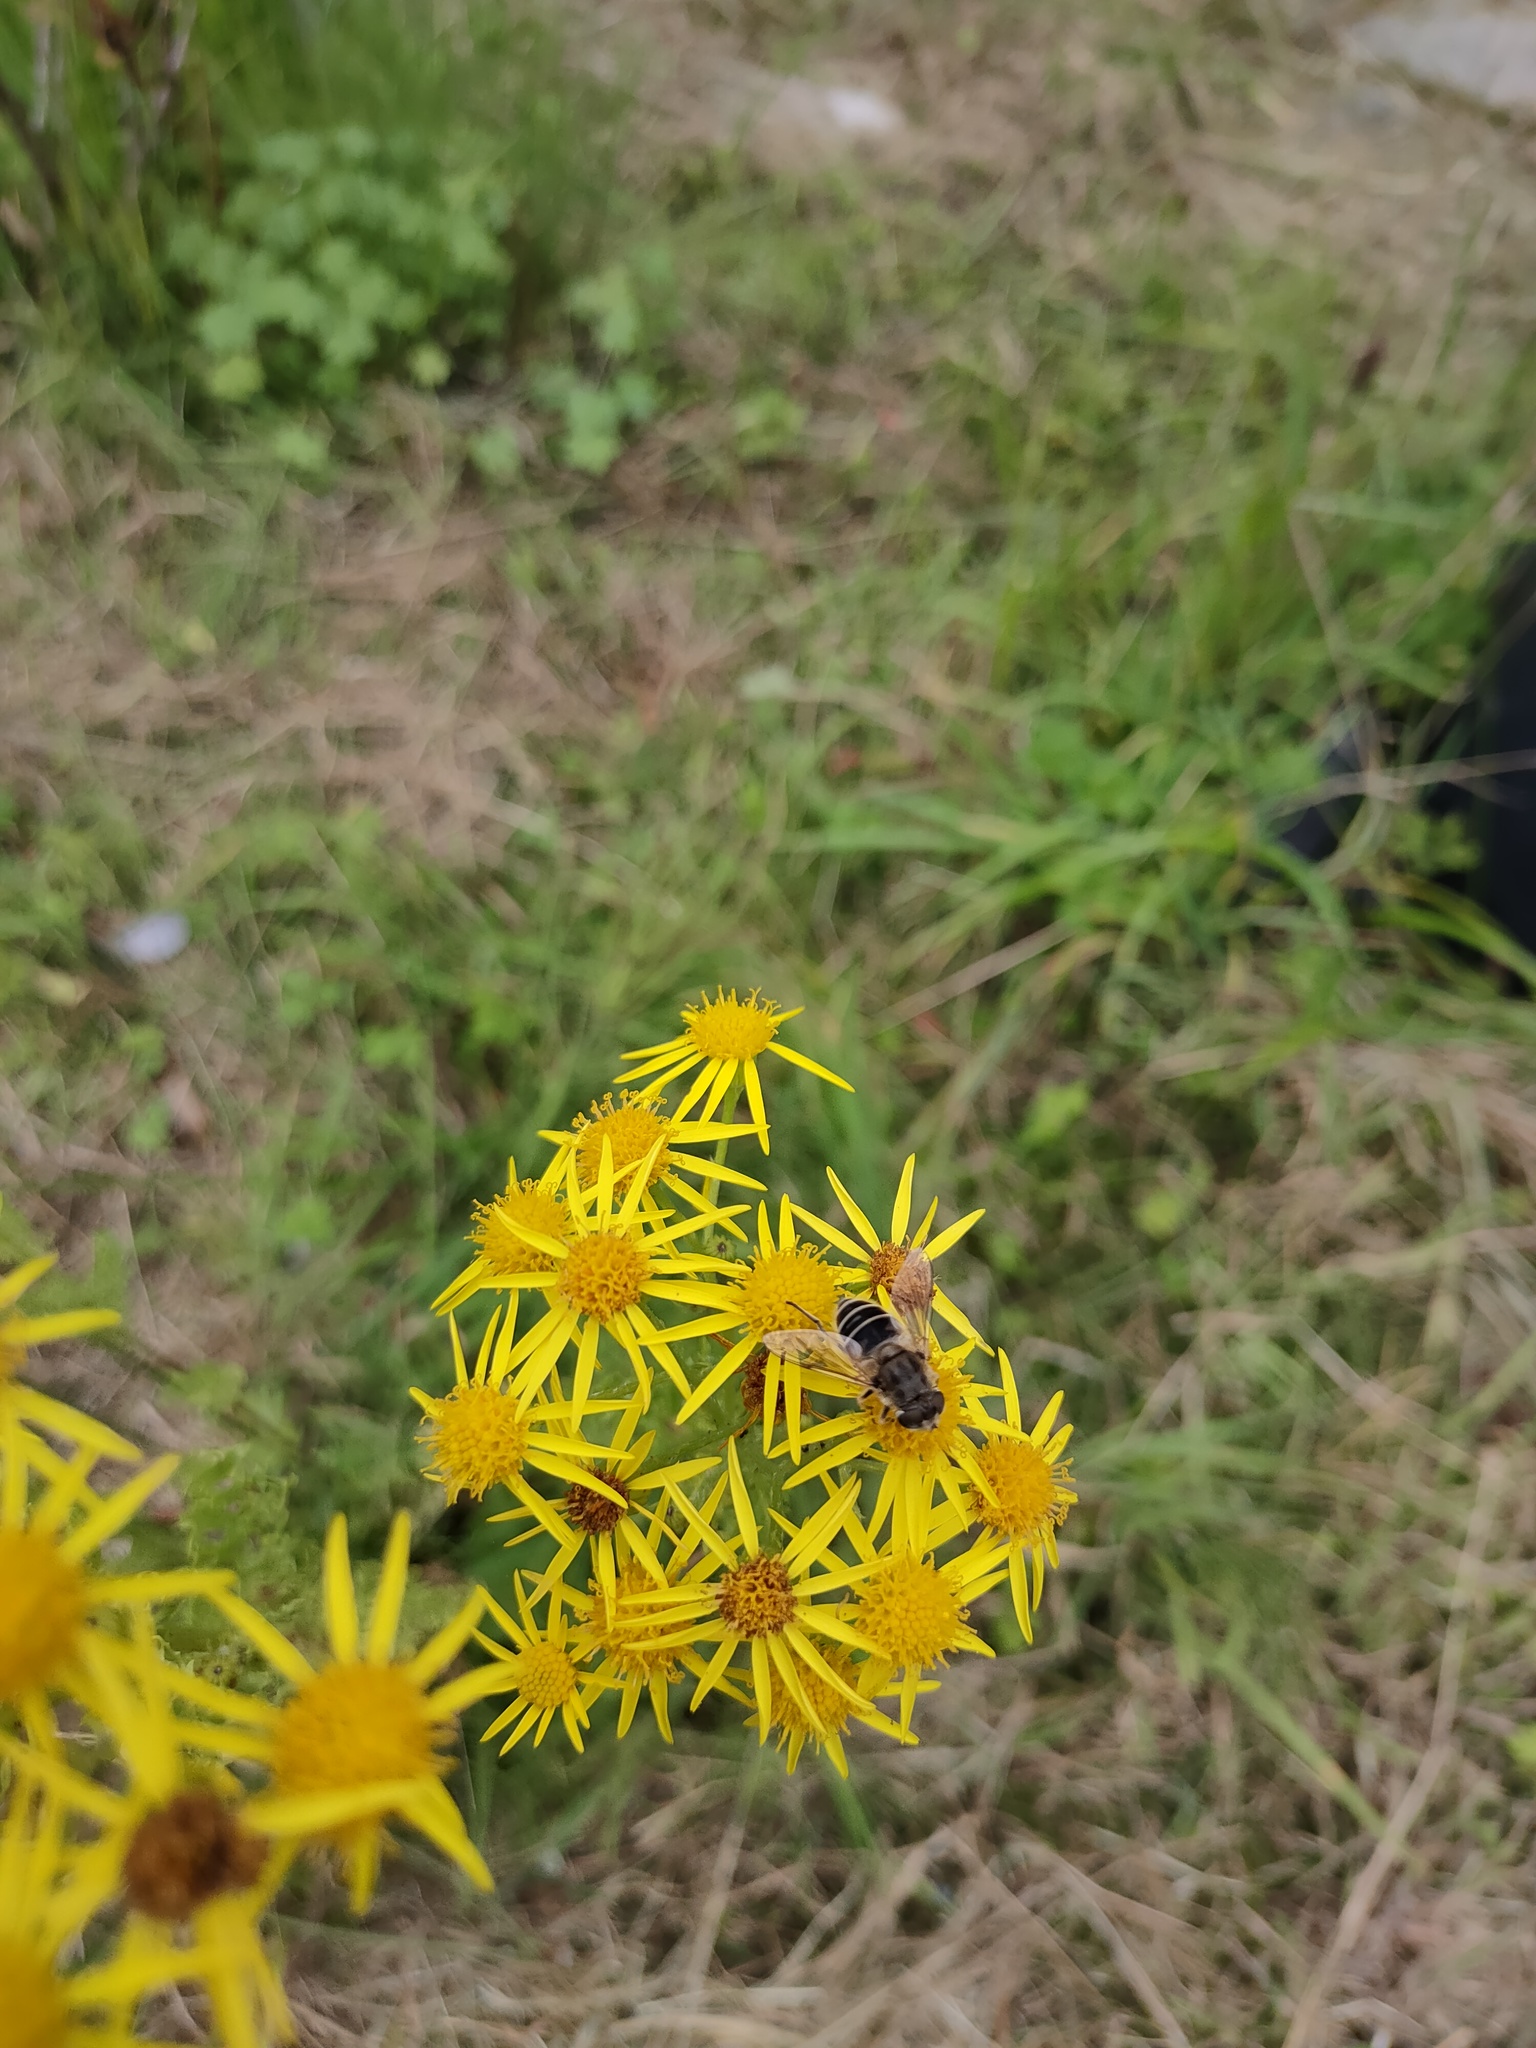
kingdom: Animalia
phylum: Arthropoda
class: Insecta
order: Diptera
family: Syrphidae
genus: Eristalis
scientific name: Eristalis arbustorum
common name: Hover fly
